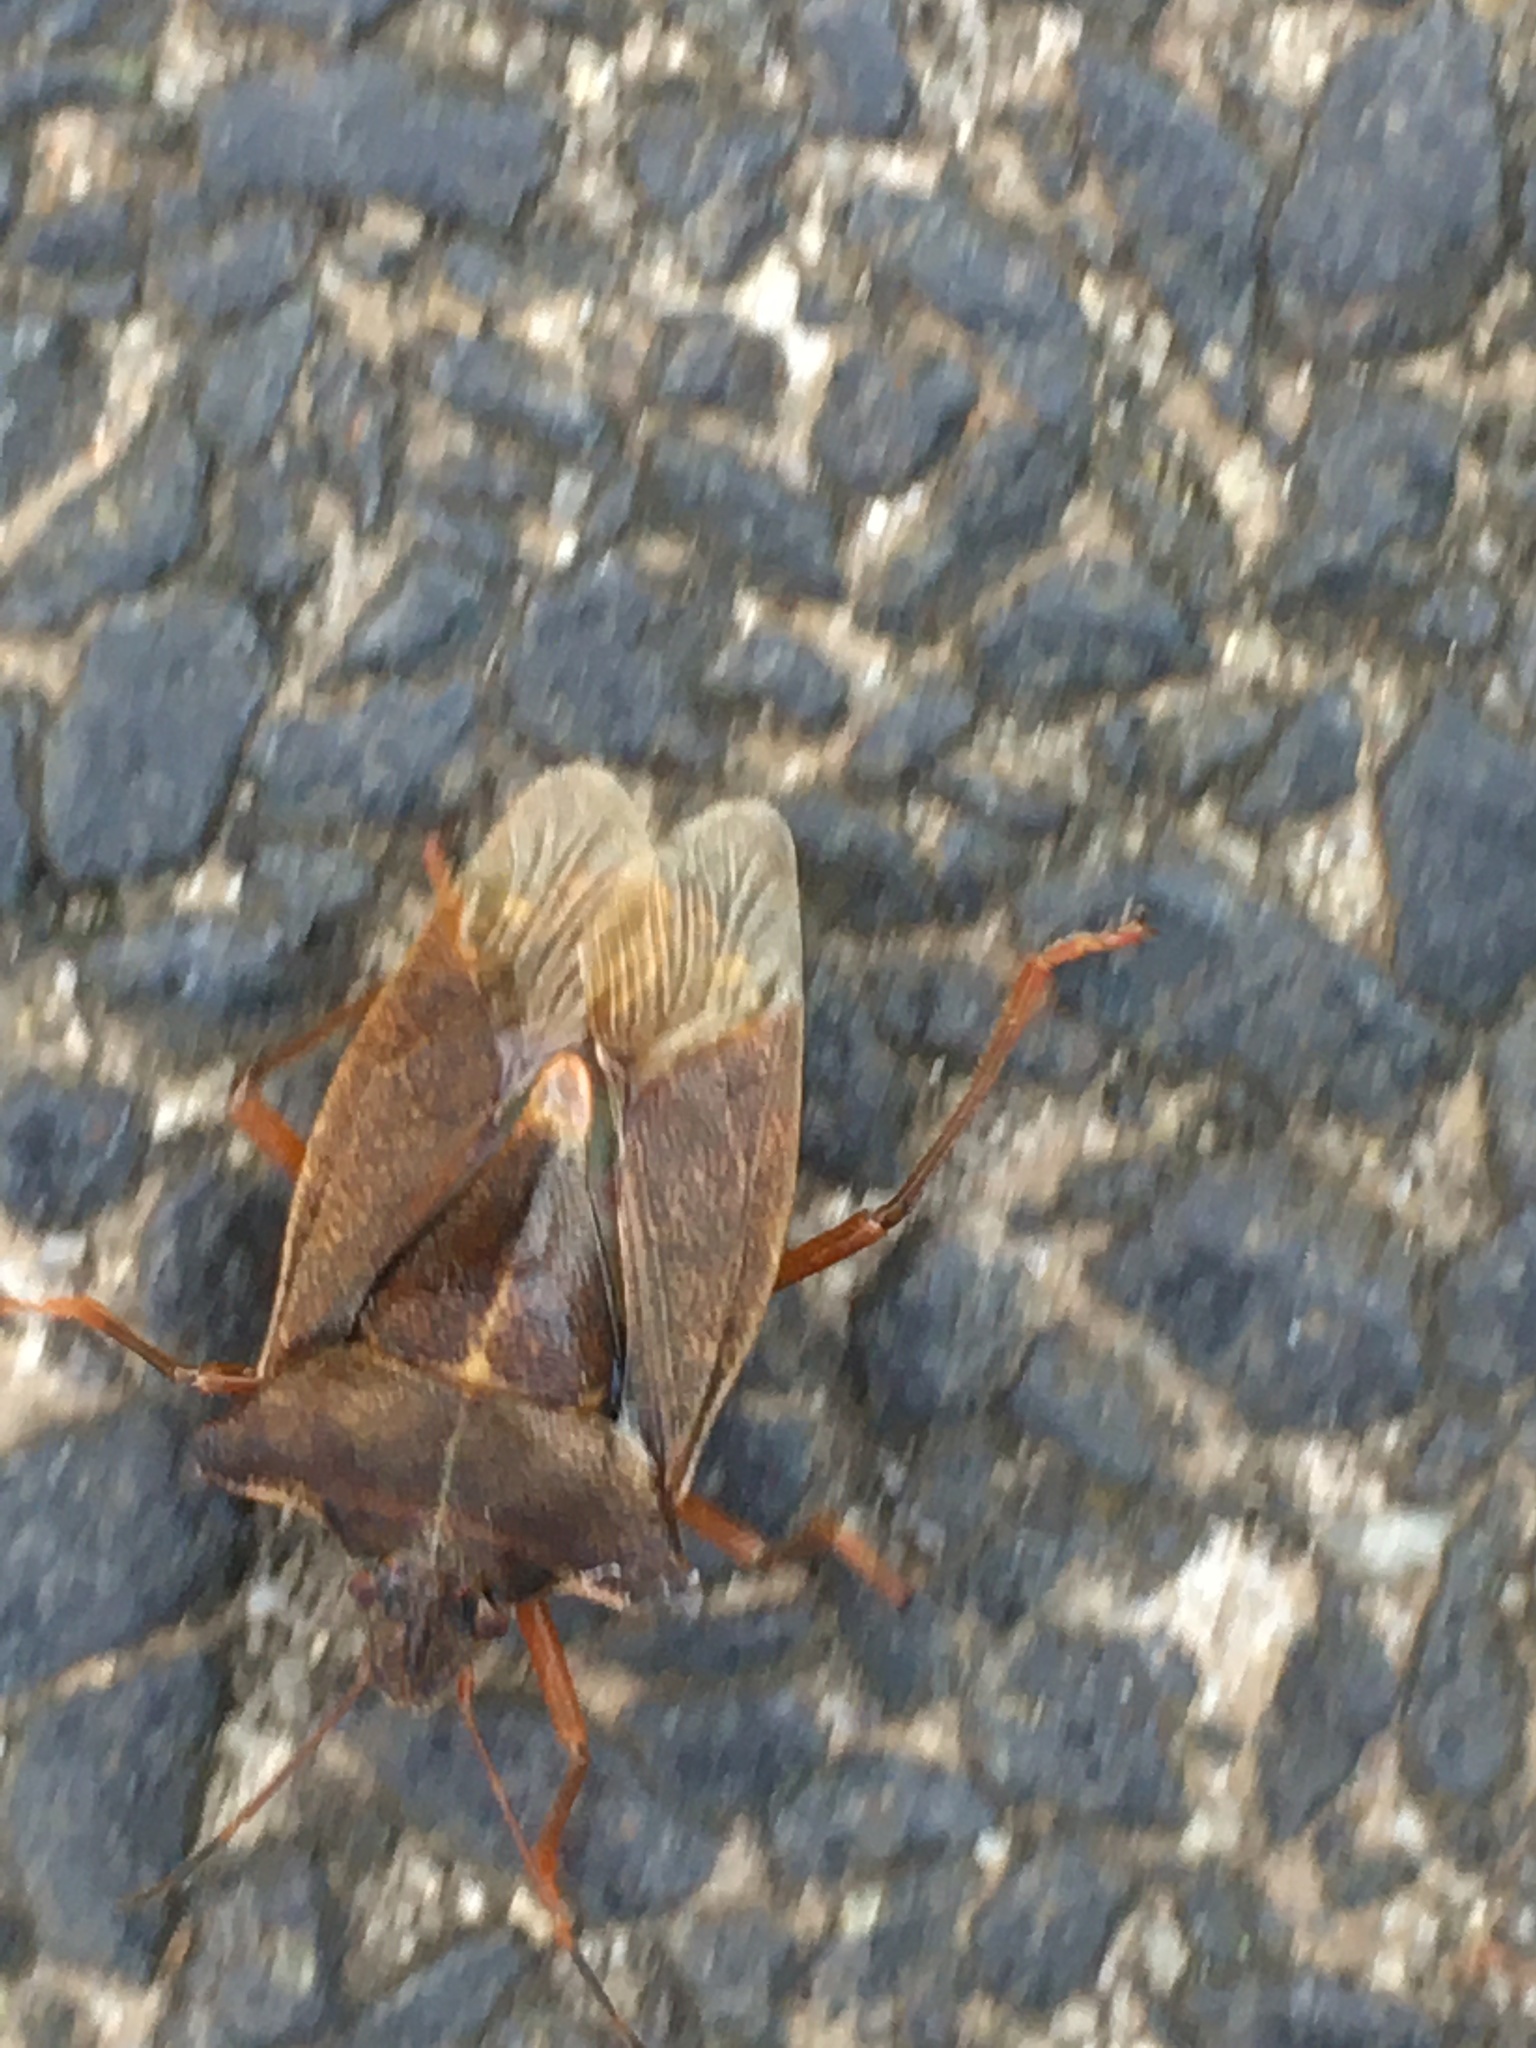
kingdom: Animalia
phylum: Arthropoda
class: Insecta
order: Hemiptera
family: Pentatomidae
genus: Pentatoma
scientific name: Pentatoma rufipes
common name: Forest bug
